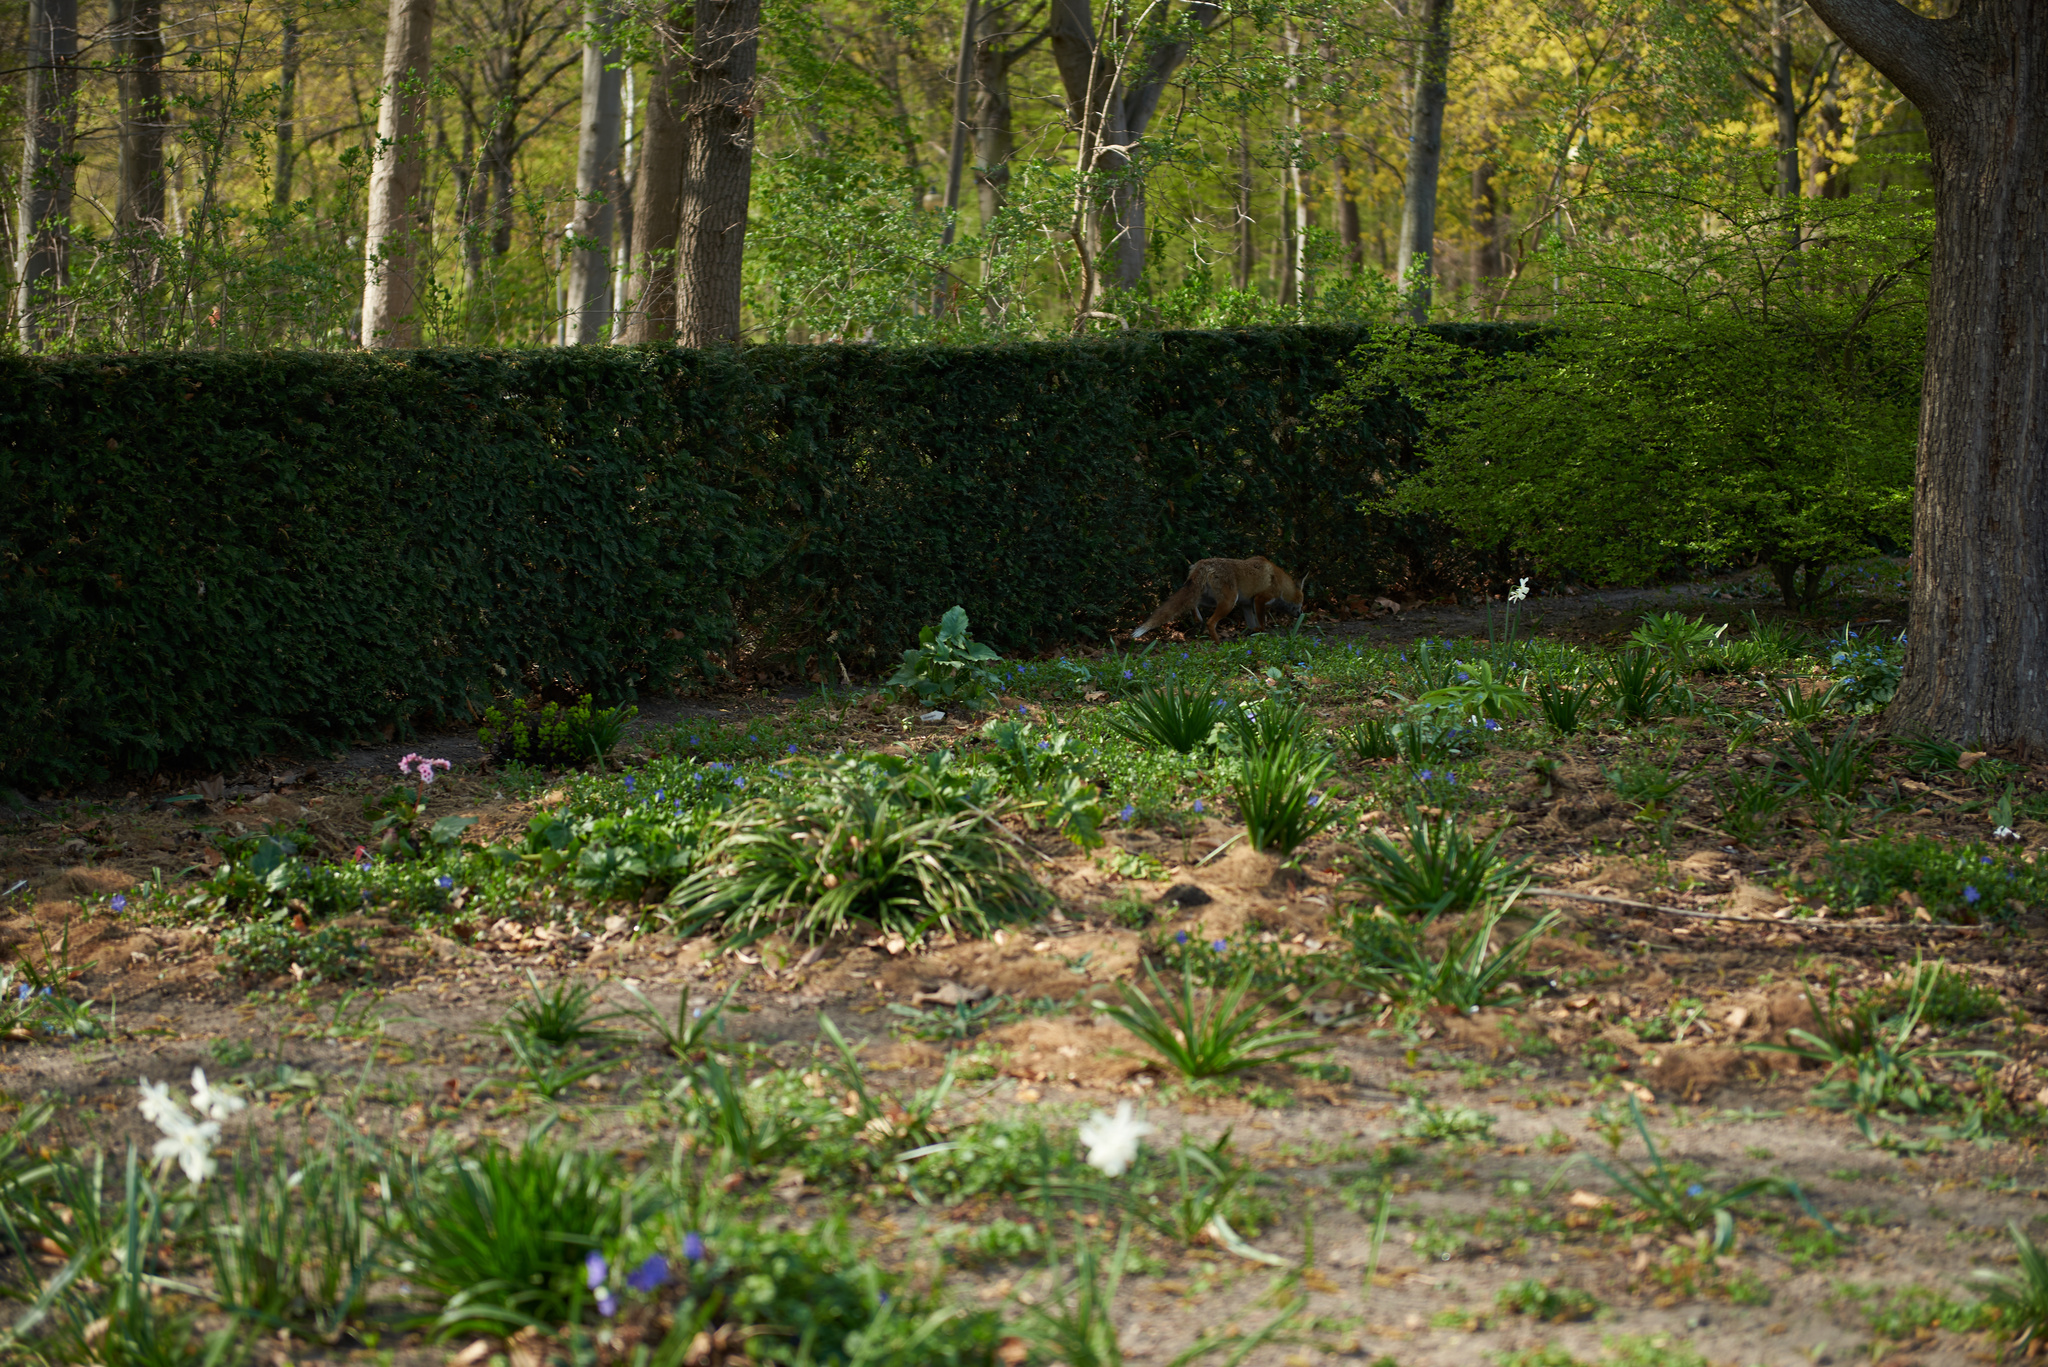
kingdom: Animalia
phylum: Chordata
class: Mammalia
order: Carnivora
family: Canidae
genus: Vulpes
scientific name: Vulpes vulpes
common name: Red fox
